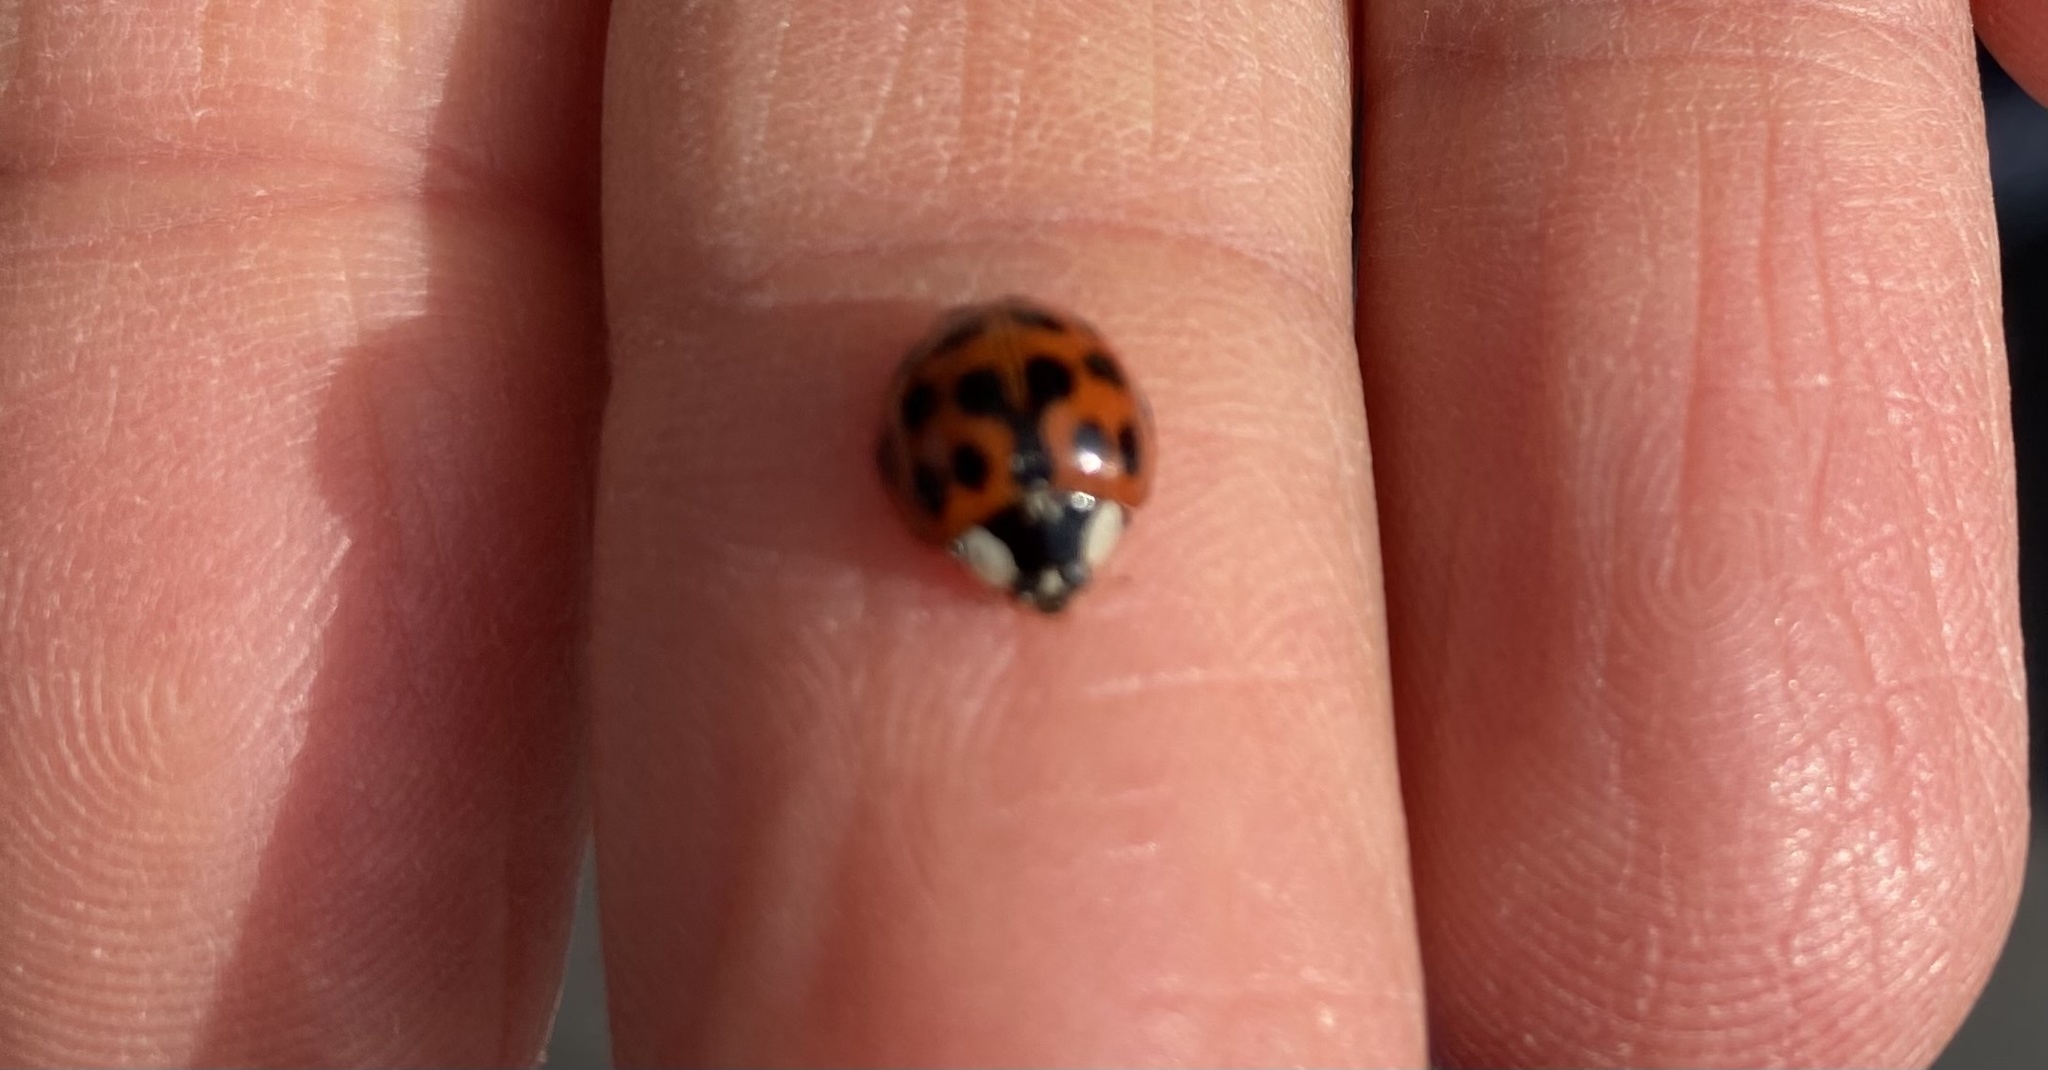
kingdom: Animalia
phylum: Arthropoda
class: Insecta
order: Coleoptera
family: Coccinellidae
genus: Harmonia
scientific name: Harmonia axyridis
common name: Harlequin ladybird
